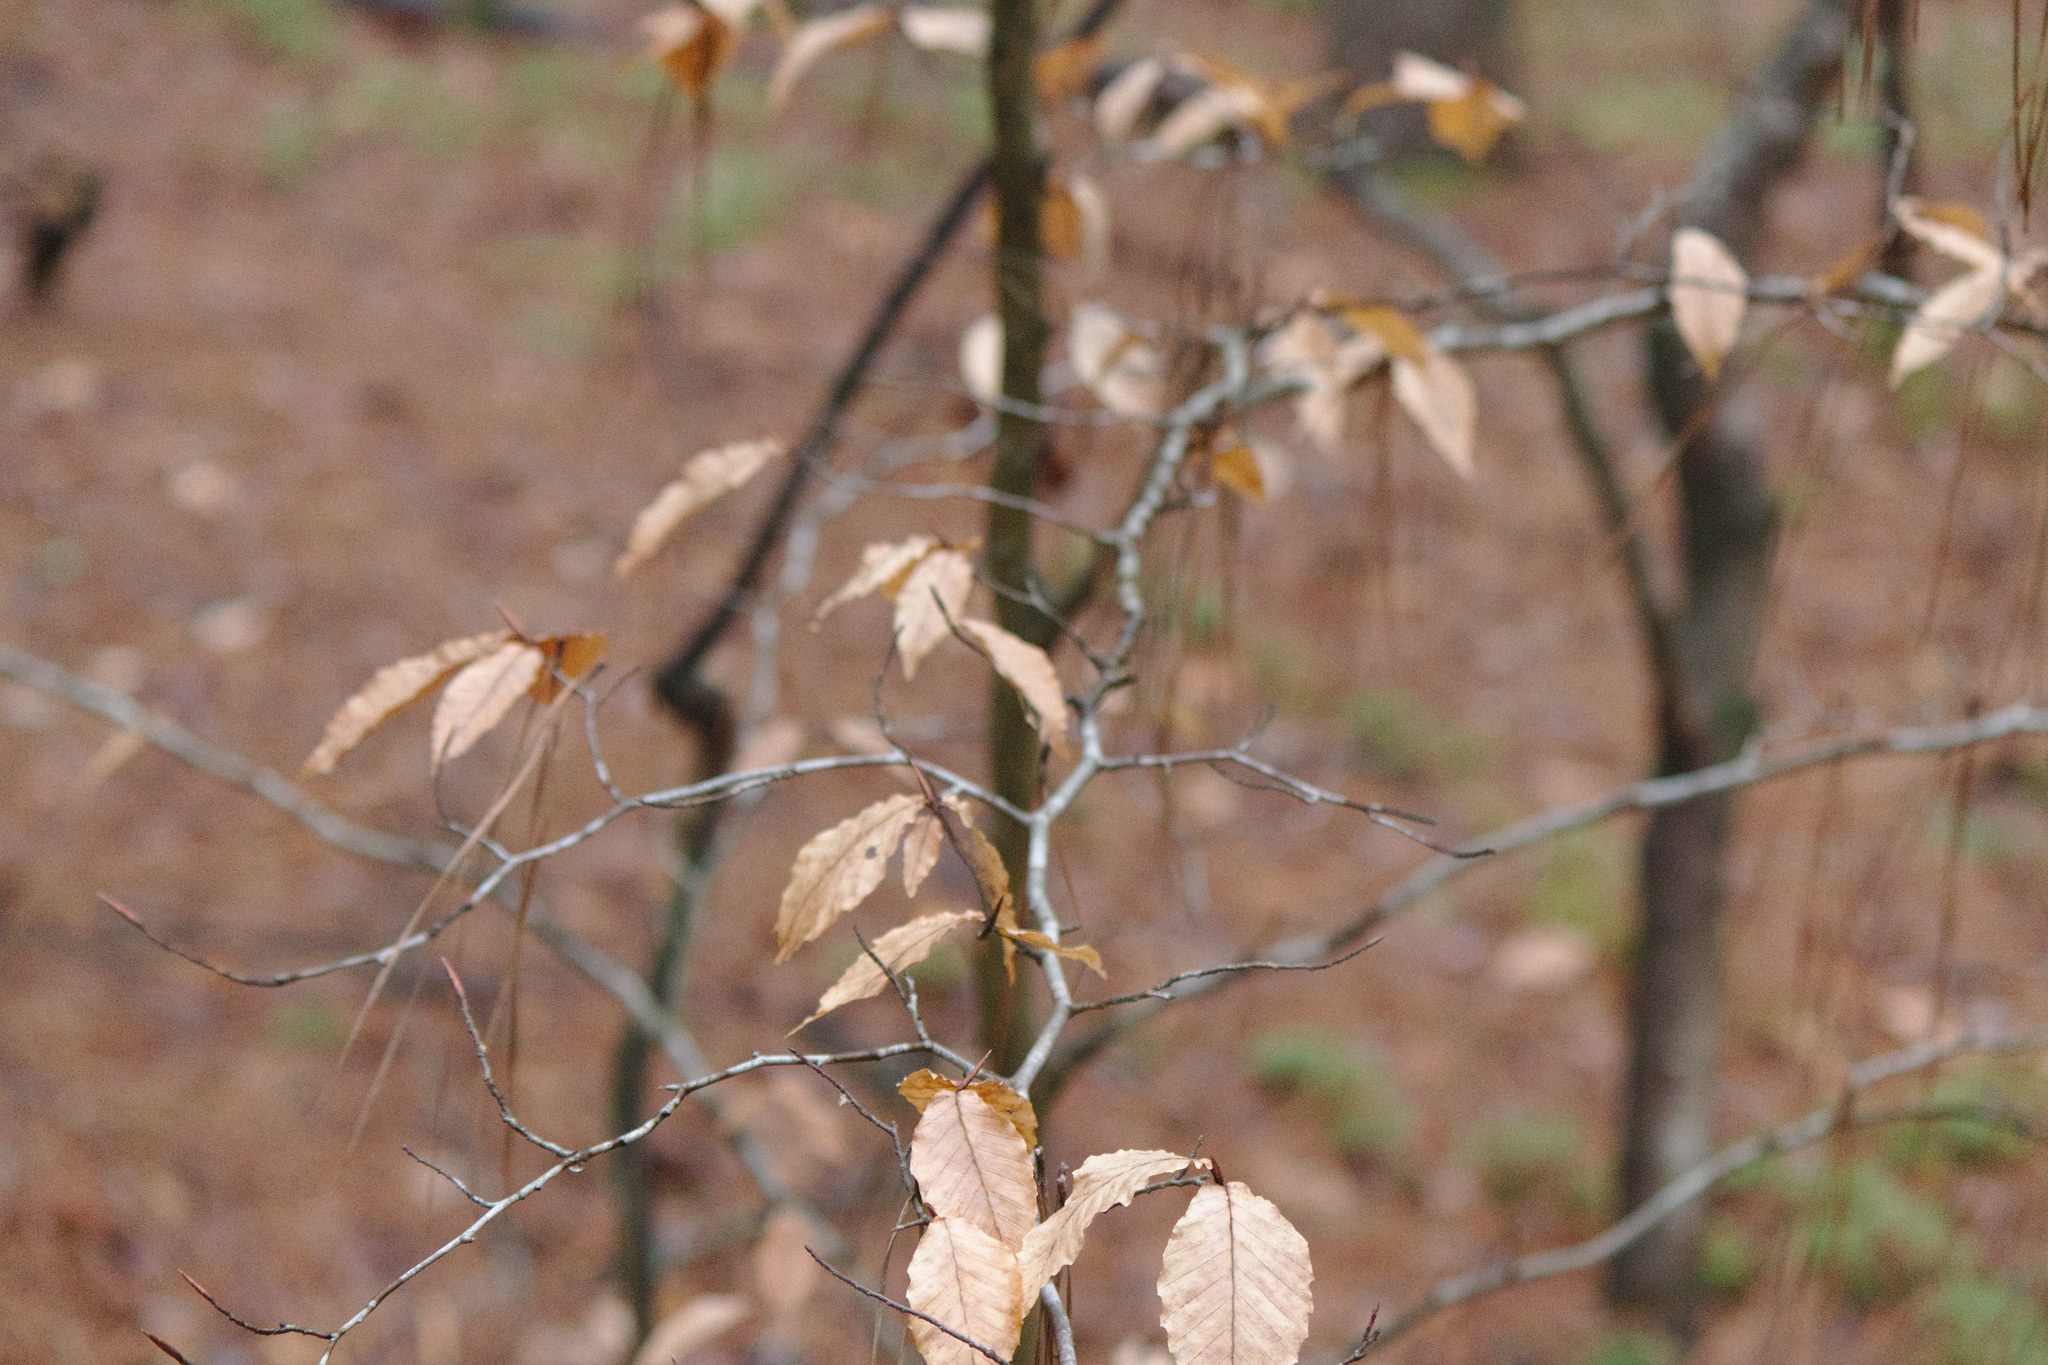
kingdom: Plantae
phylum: Tracheophyta
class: Magnoliopsida
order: Fagales
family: Fagaceae
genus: Fagus
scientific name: Fagus grandifolia
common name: American beech
